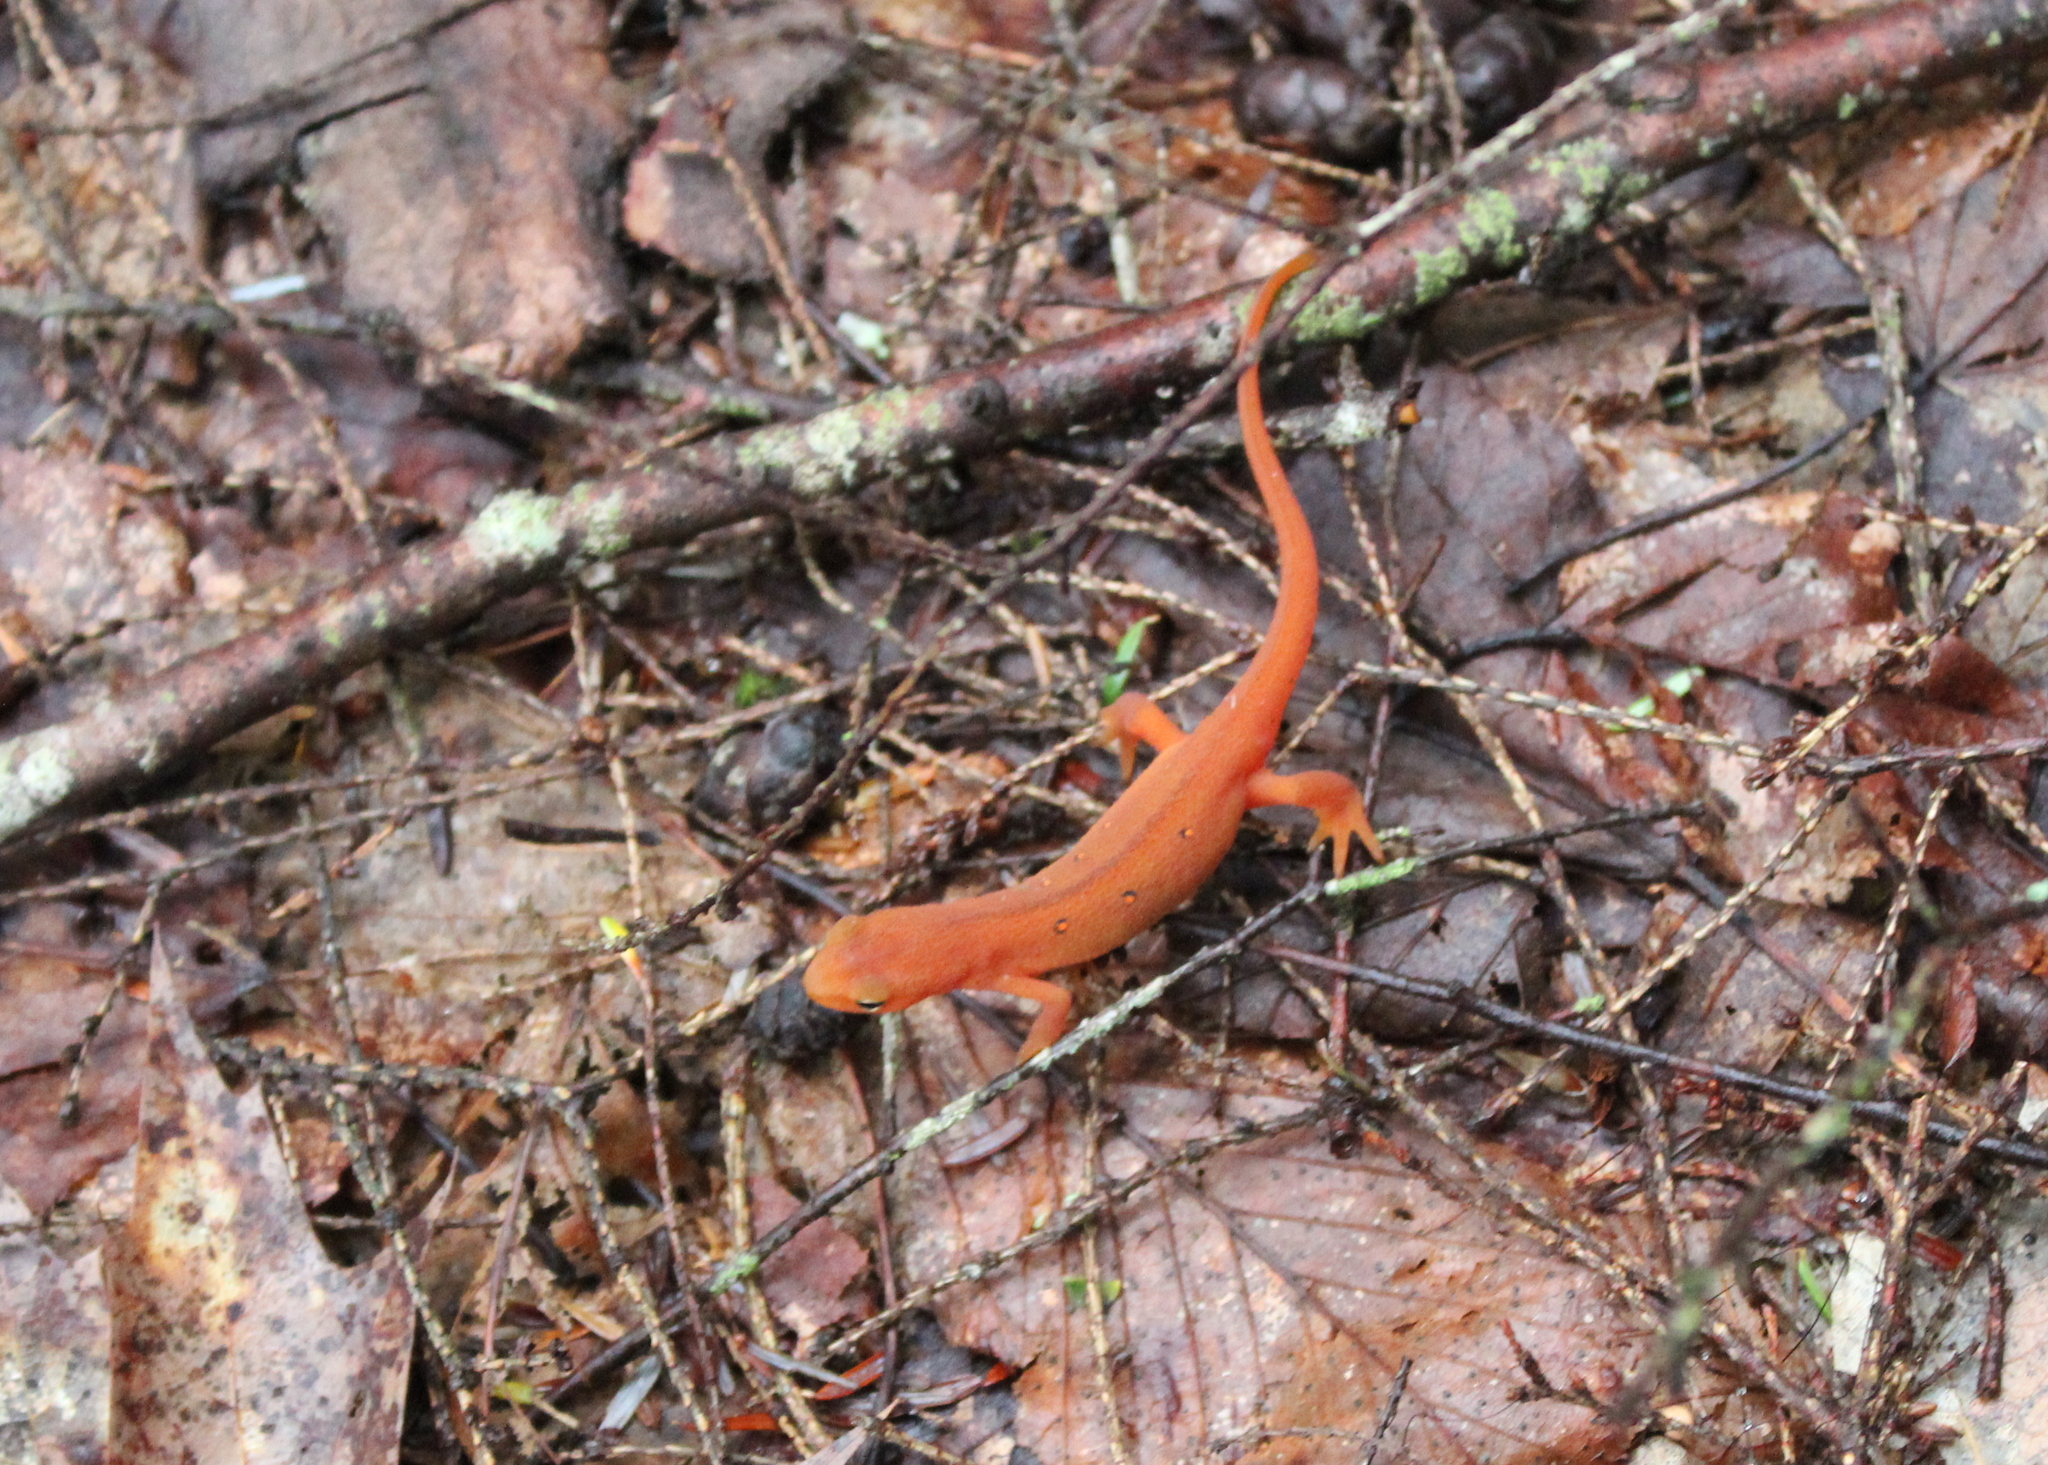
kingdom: Animalia
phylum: Chordata
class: Amphibia
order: Caudata
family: Salamandridae
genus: Notophthalmus
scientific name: Notophthalmus viridescens
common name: Eastern newt
